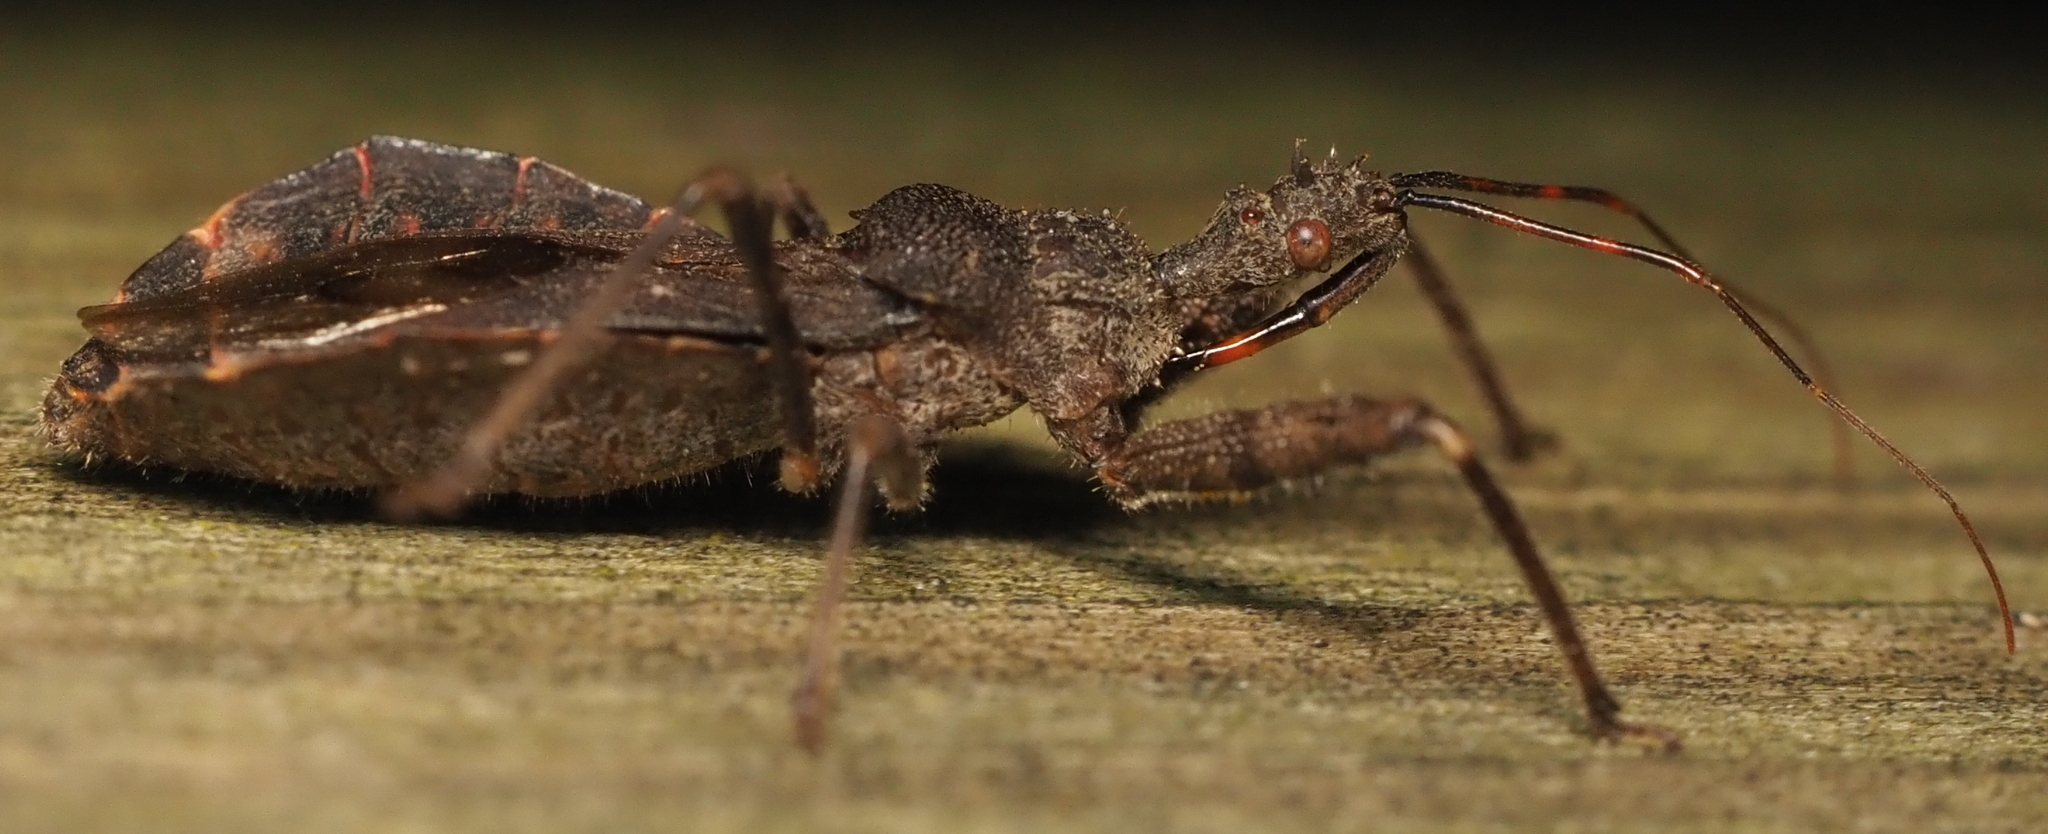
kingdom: Animalia
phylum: Arthropoda
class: Insecta
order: Hemiptera
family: Reduviidae
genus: Sinea
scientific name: Sinea diadema
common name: Spined assassin bug
